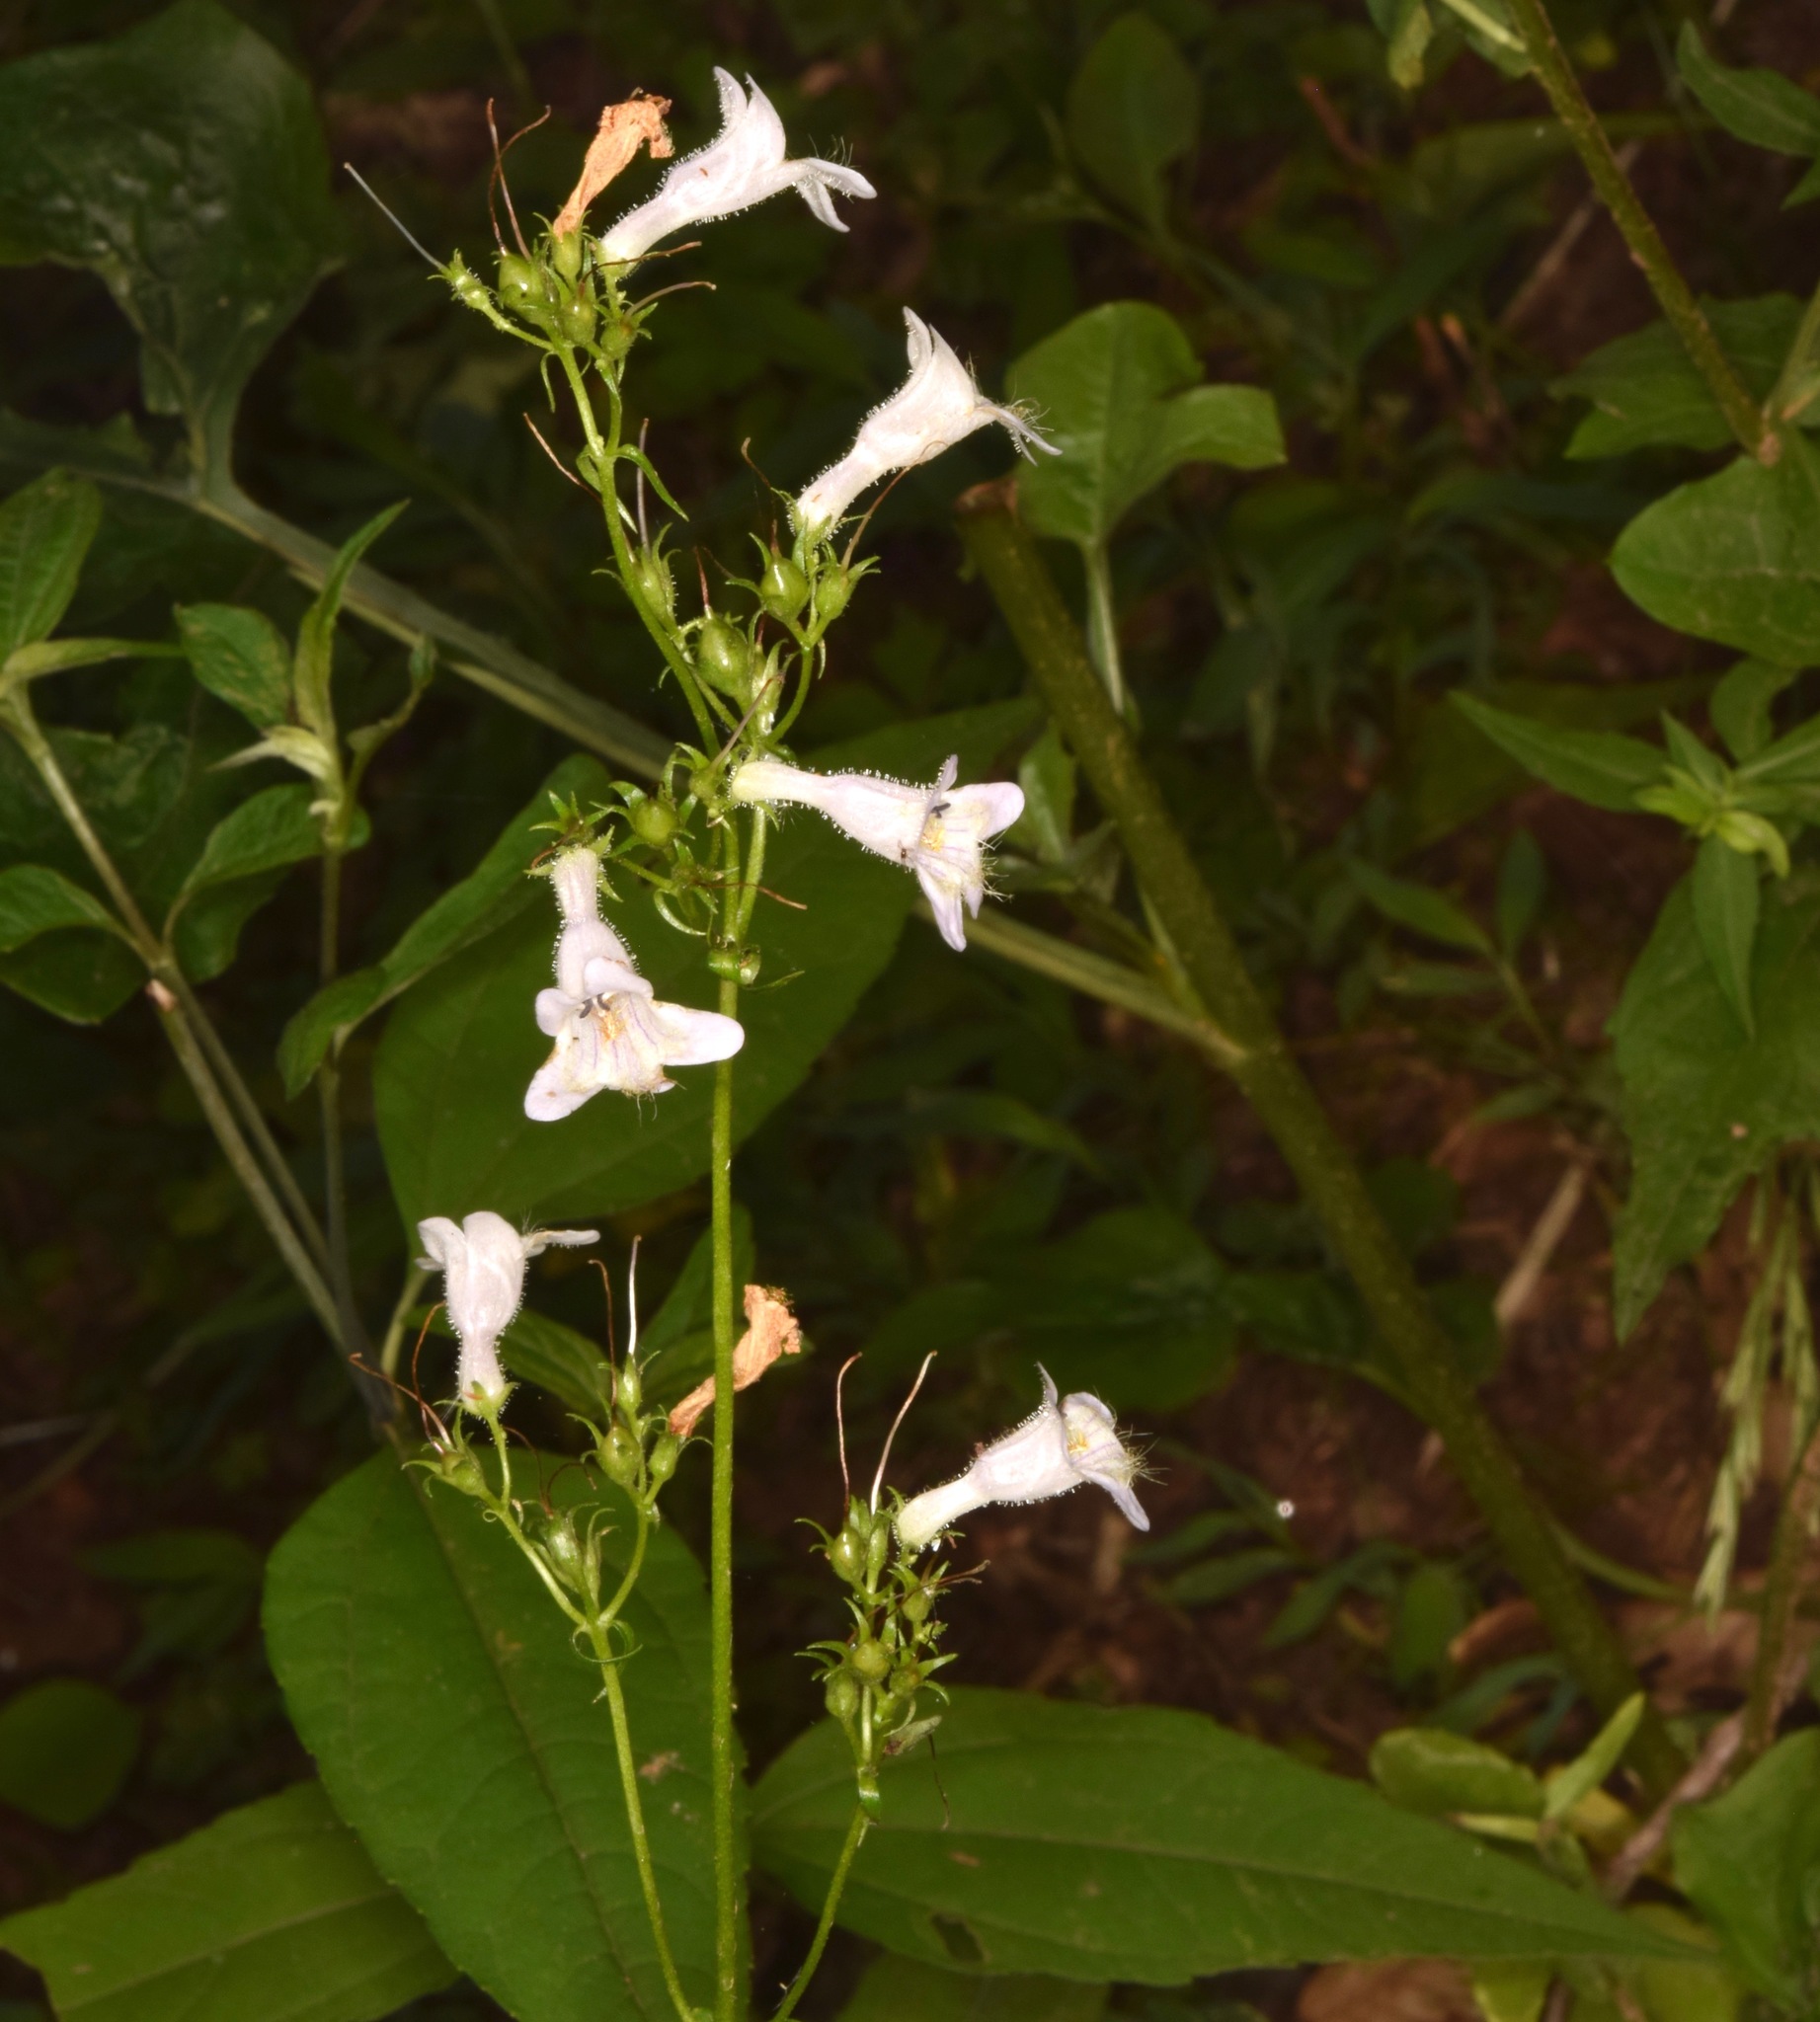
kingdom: Plantae
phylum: Tracheophyta
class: Magnoliopsida
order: Lamiales
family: Plantaginaceae
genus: Penstemon
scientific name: Penstemon laevigatus
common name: Eastern beardtongue
